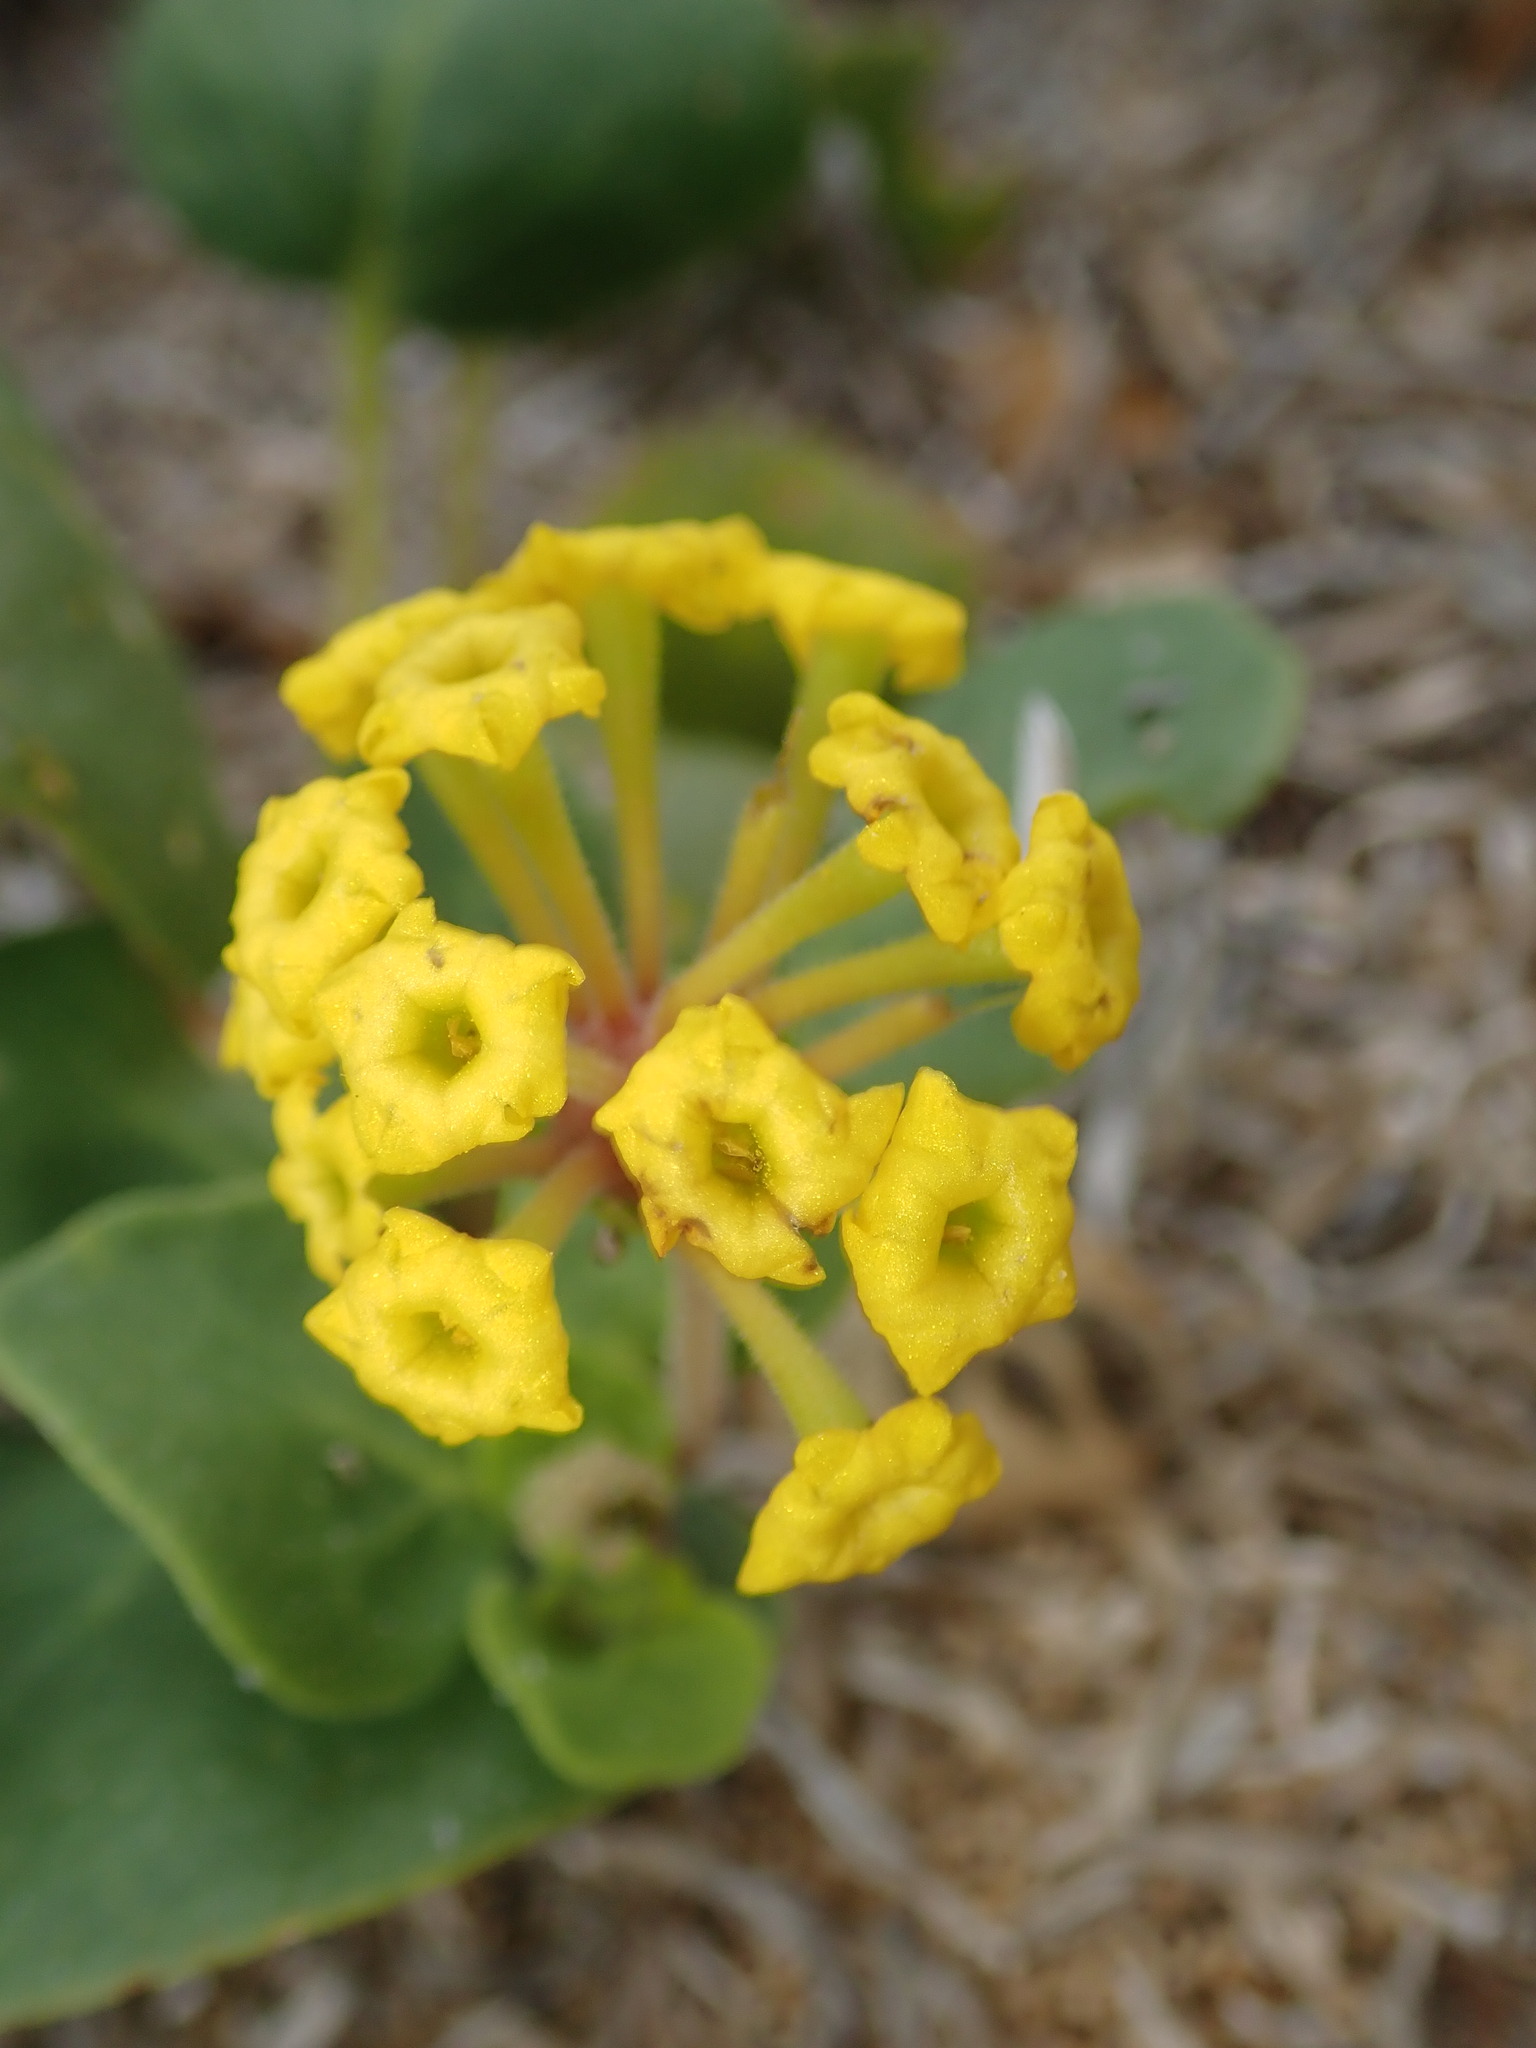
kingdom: Plantae
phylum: Tracheophyta
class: Magnoliopsida
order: Caryophyllales
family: Nyctaginaceae
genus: Abronia
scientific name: Abronia latifolia
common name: Yellow sand-verbena
